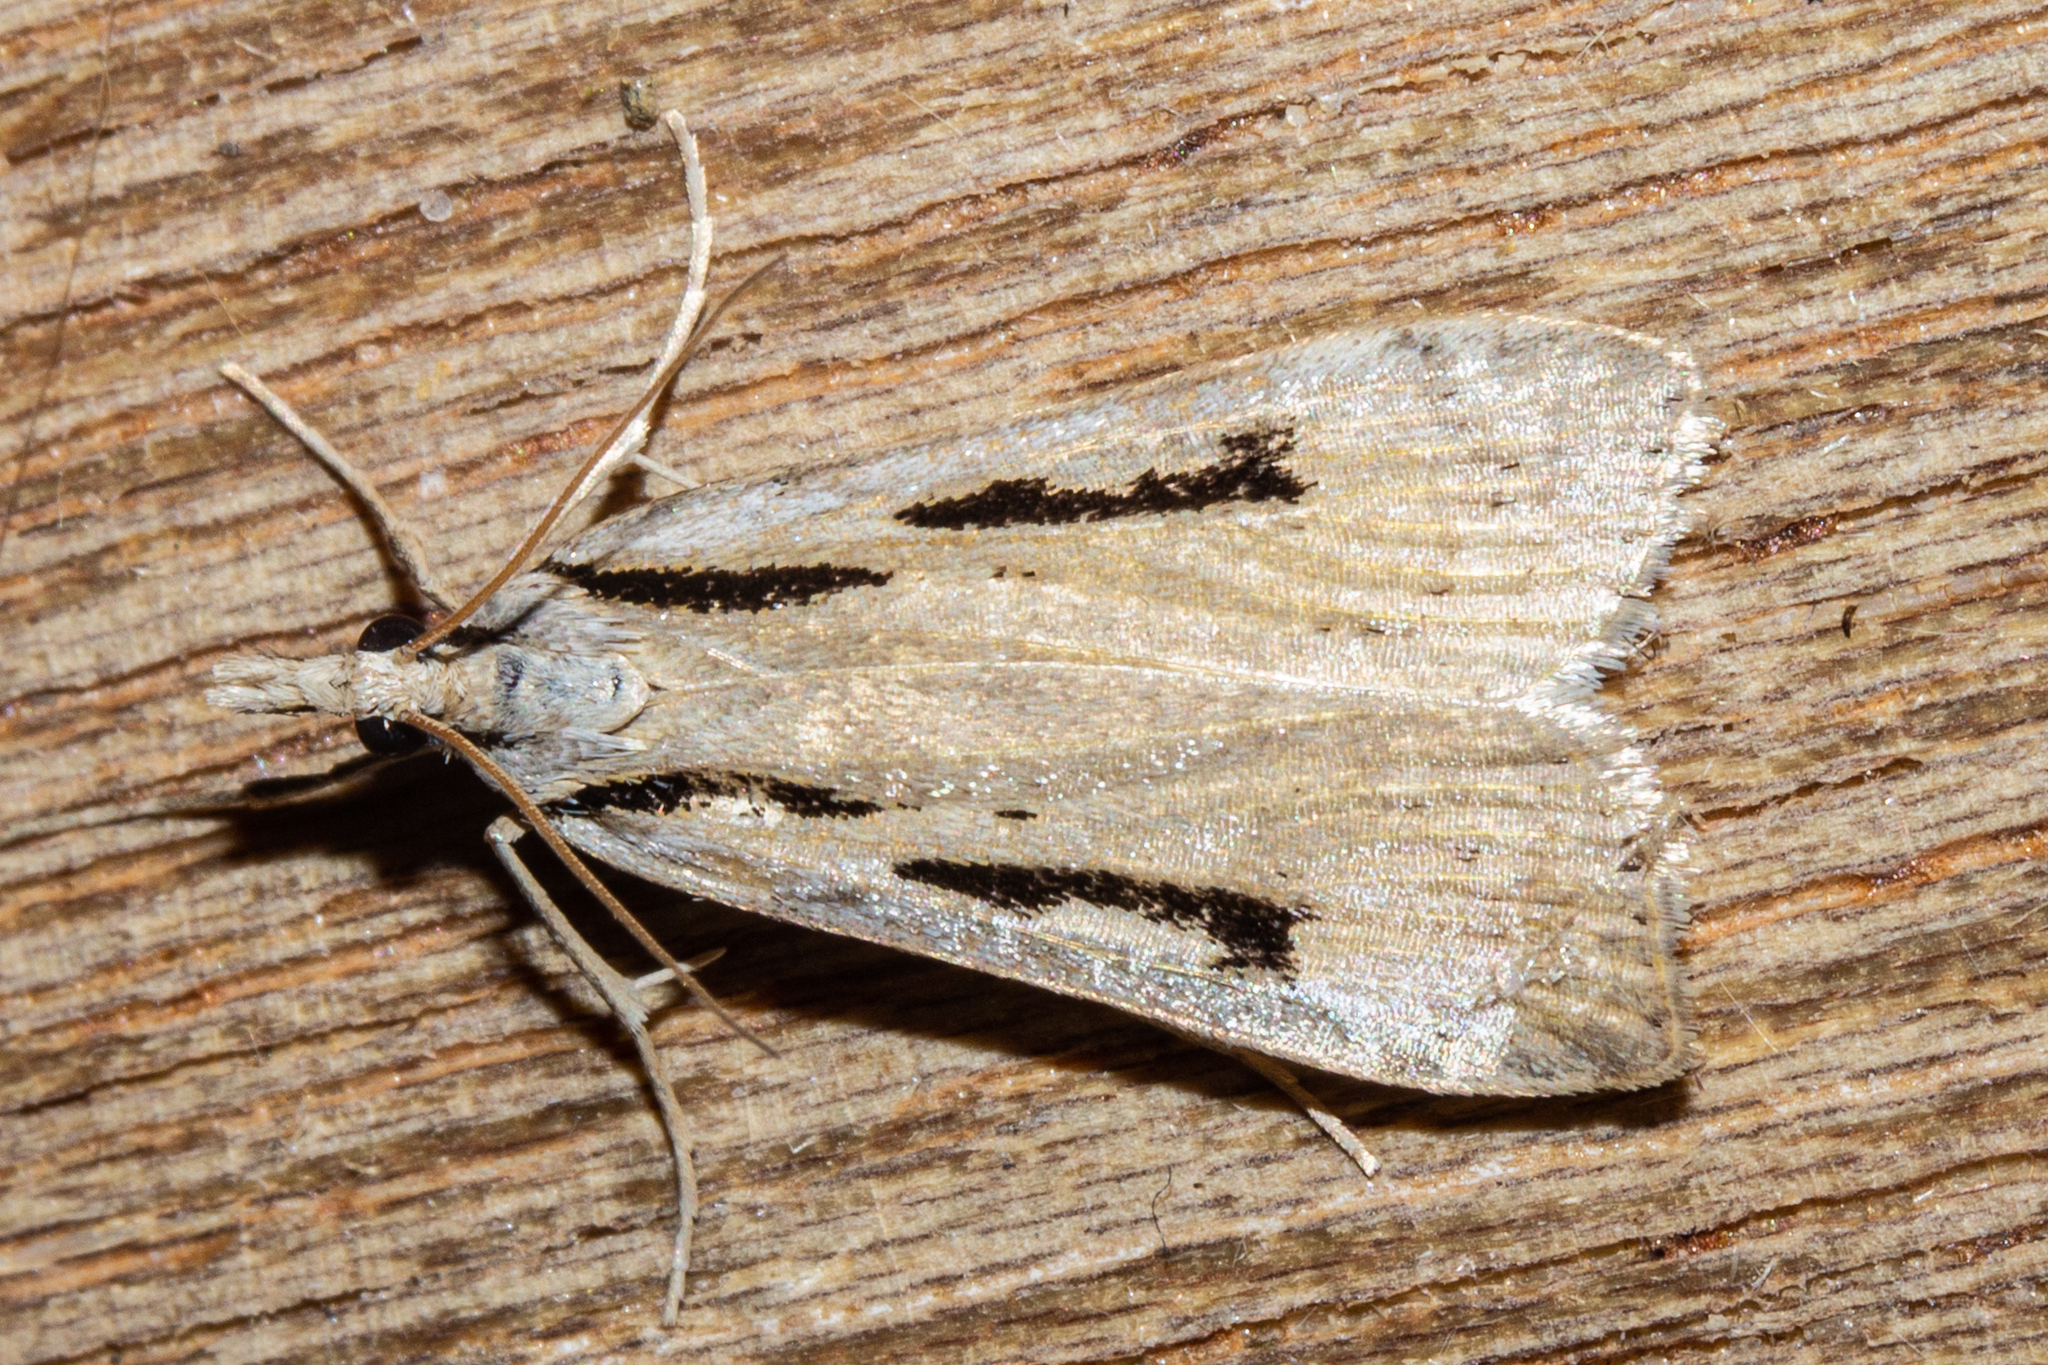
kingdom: Animalia
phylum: Arthropoda
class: Insecta
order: Lepidoptera
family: Crambidae
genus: Scoparia
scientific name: Scoparia rotuellus
